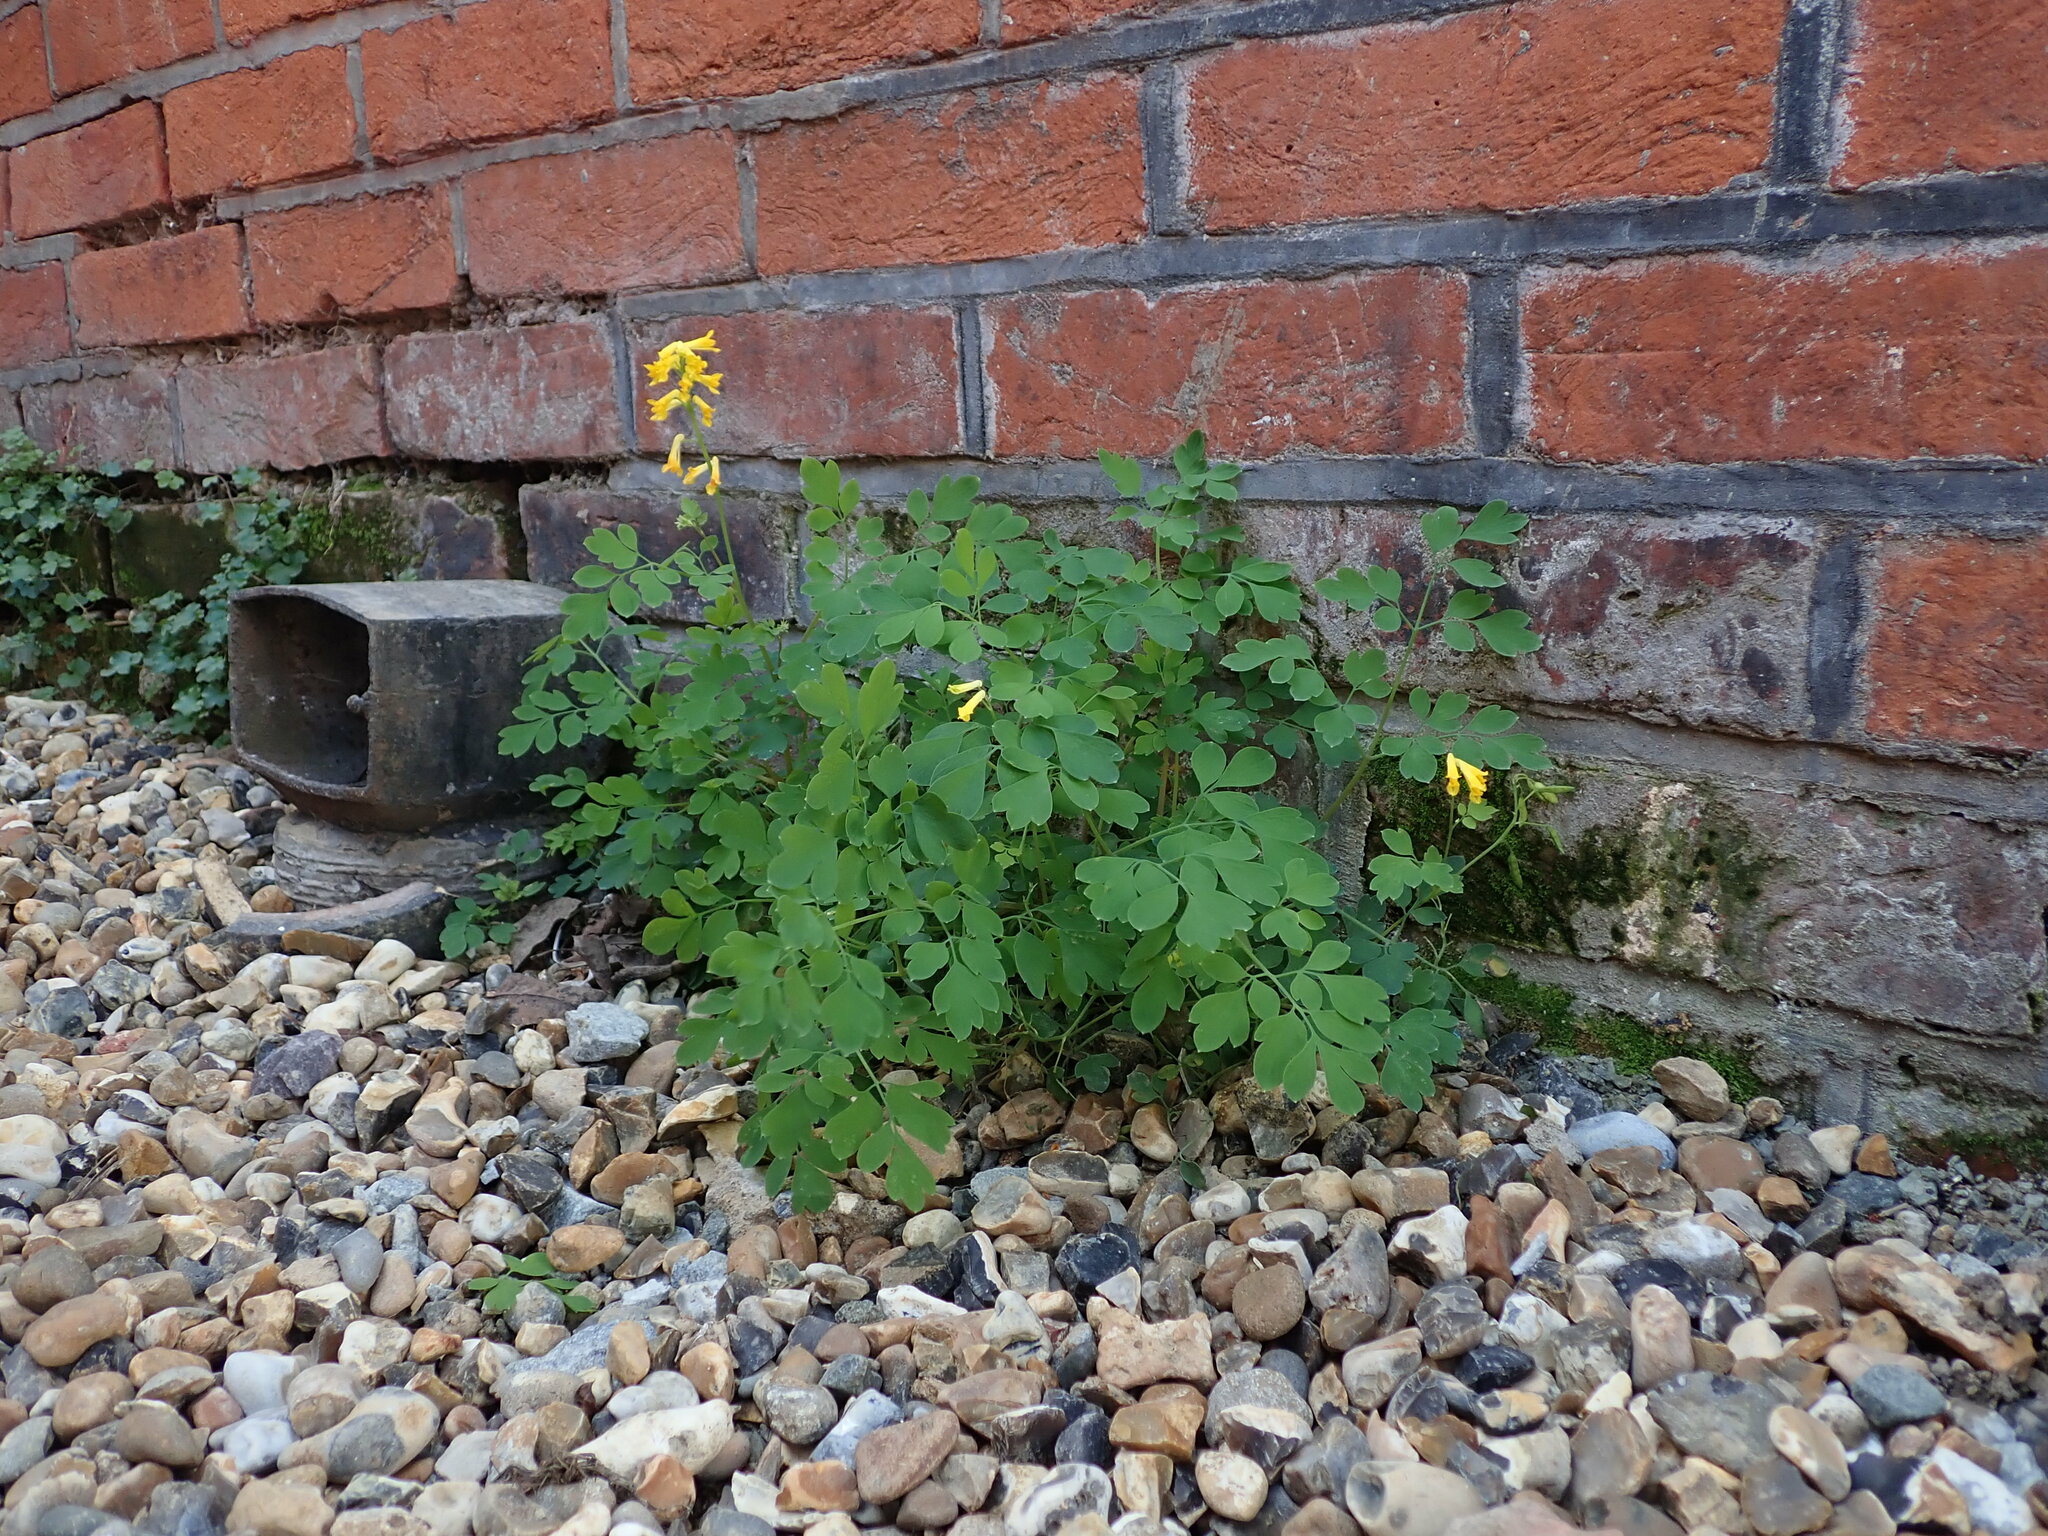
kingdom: Plantae
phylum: Tracheophyta
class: Magnoliopsida
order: Ranunculales
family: Papaveraceae
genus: Pseudofumaria
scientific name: Pseudofumaria lutea
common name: Yellow corydalis
